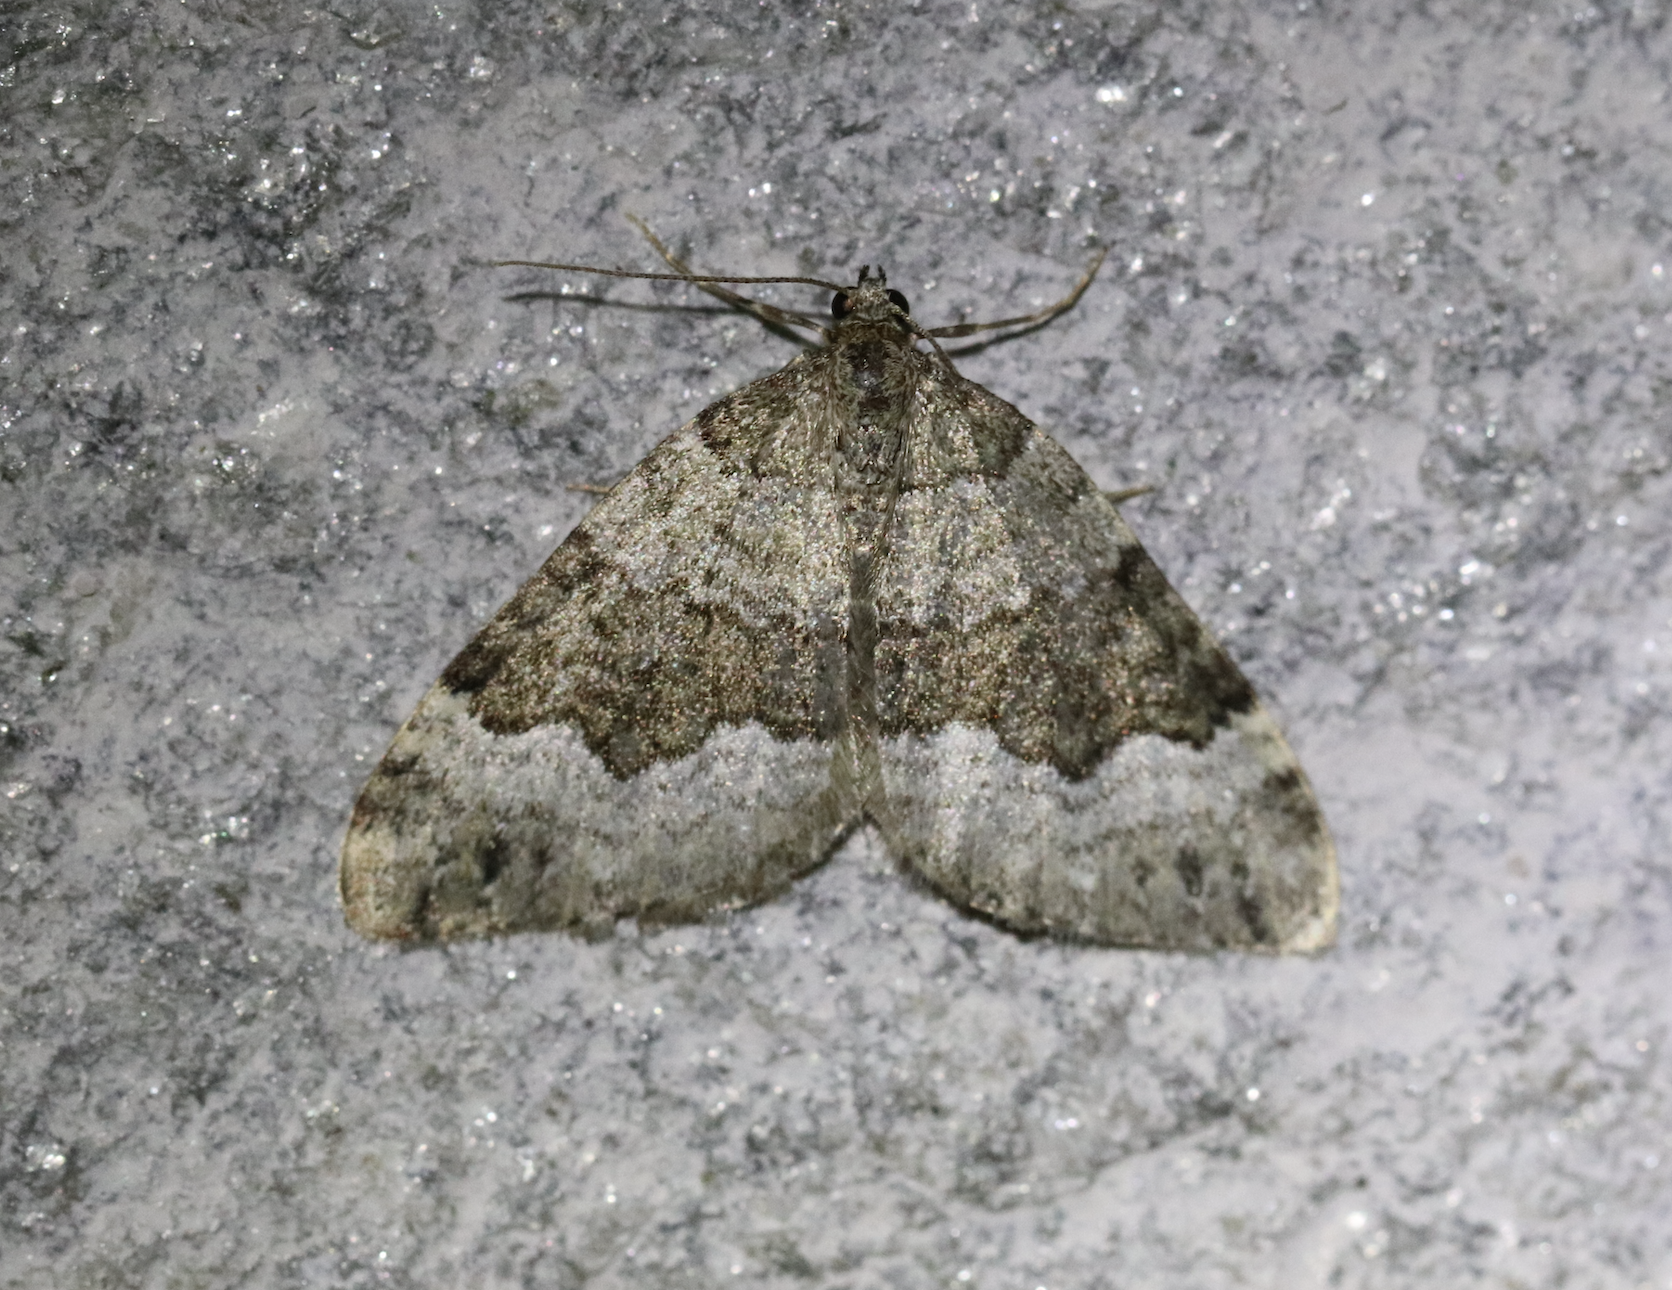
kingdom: Animalia
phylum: Arthropoda
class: Insecta
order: Lepidoptera
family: Geometridae
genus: Colostygia
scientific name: Colostygia aptata
